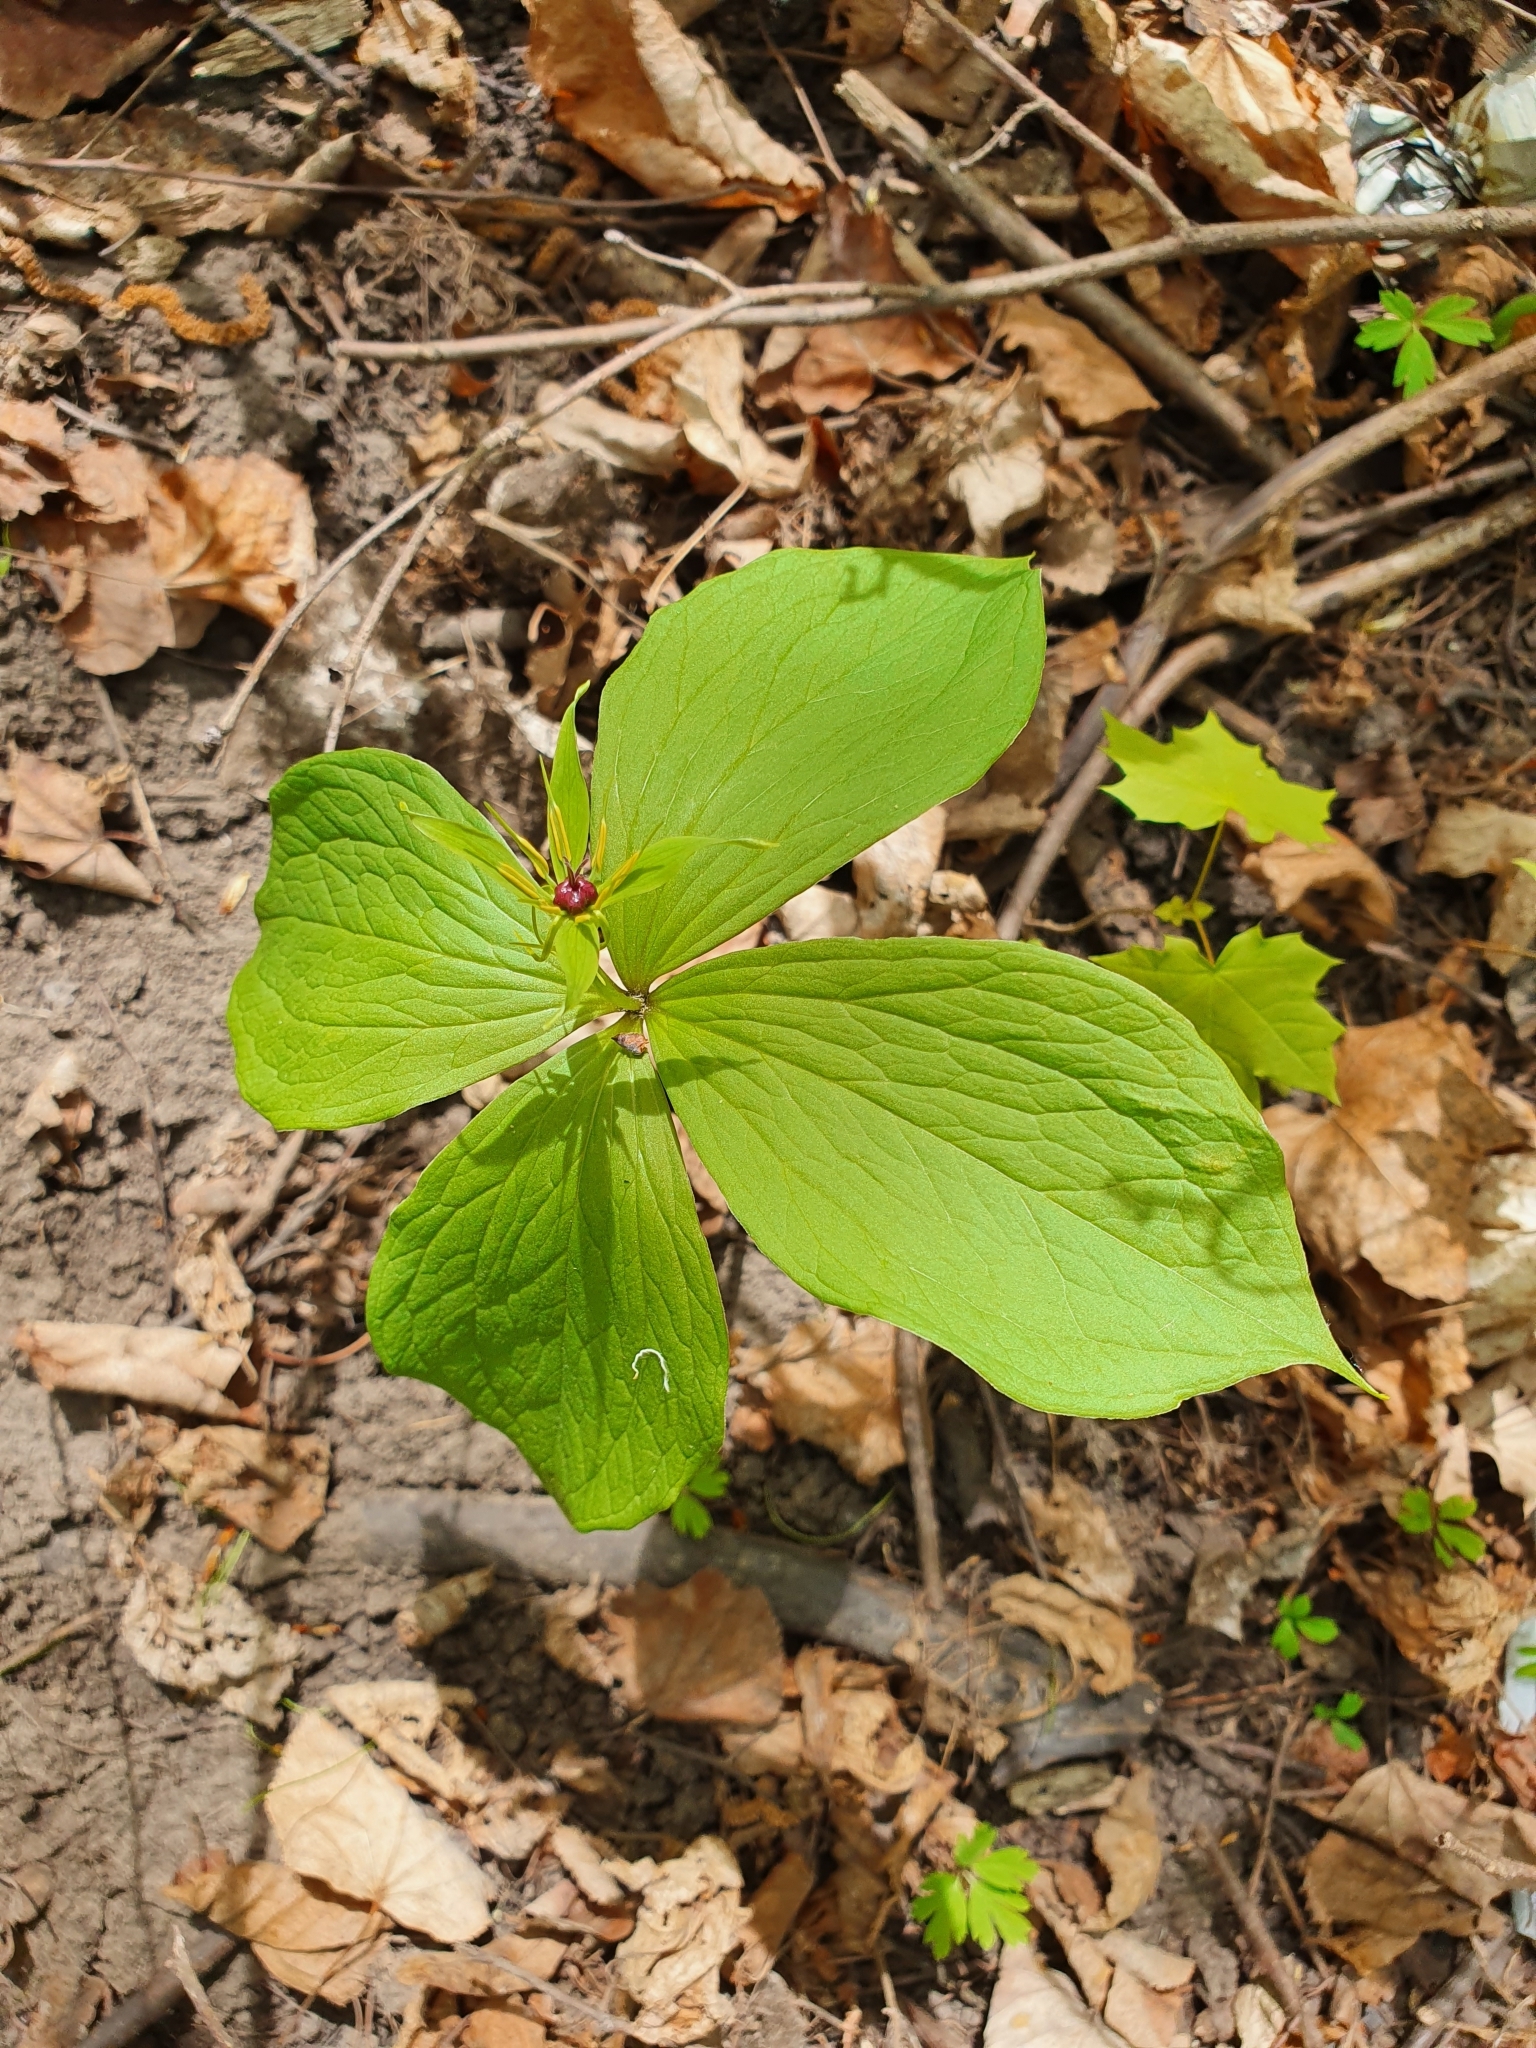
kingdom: Plantae
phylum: Tracheophyta
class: Liliopsida
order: Liliales
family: Melanthiaceae
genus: Paris
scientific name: Paris quadrifolia
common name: Herb-paris
